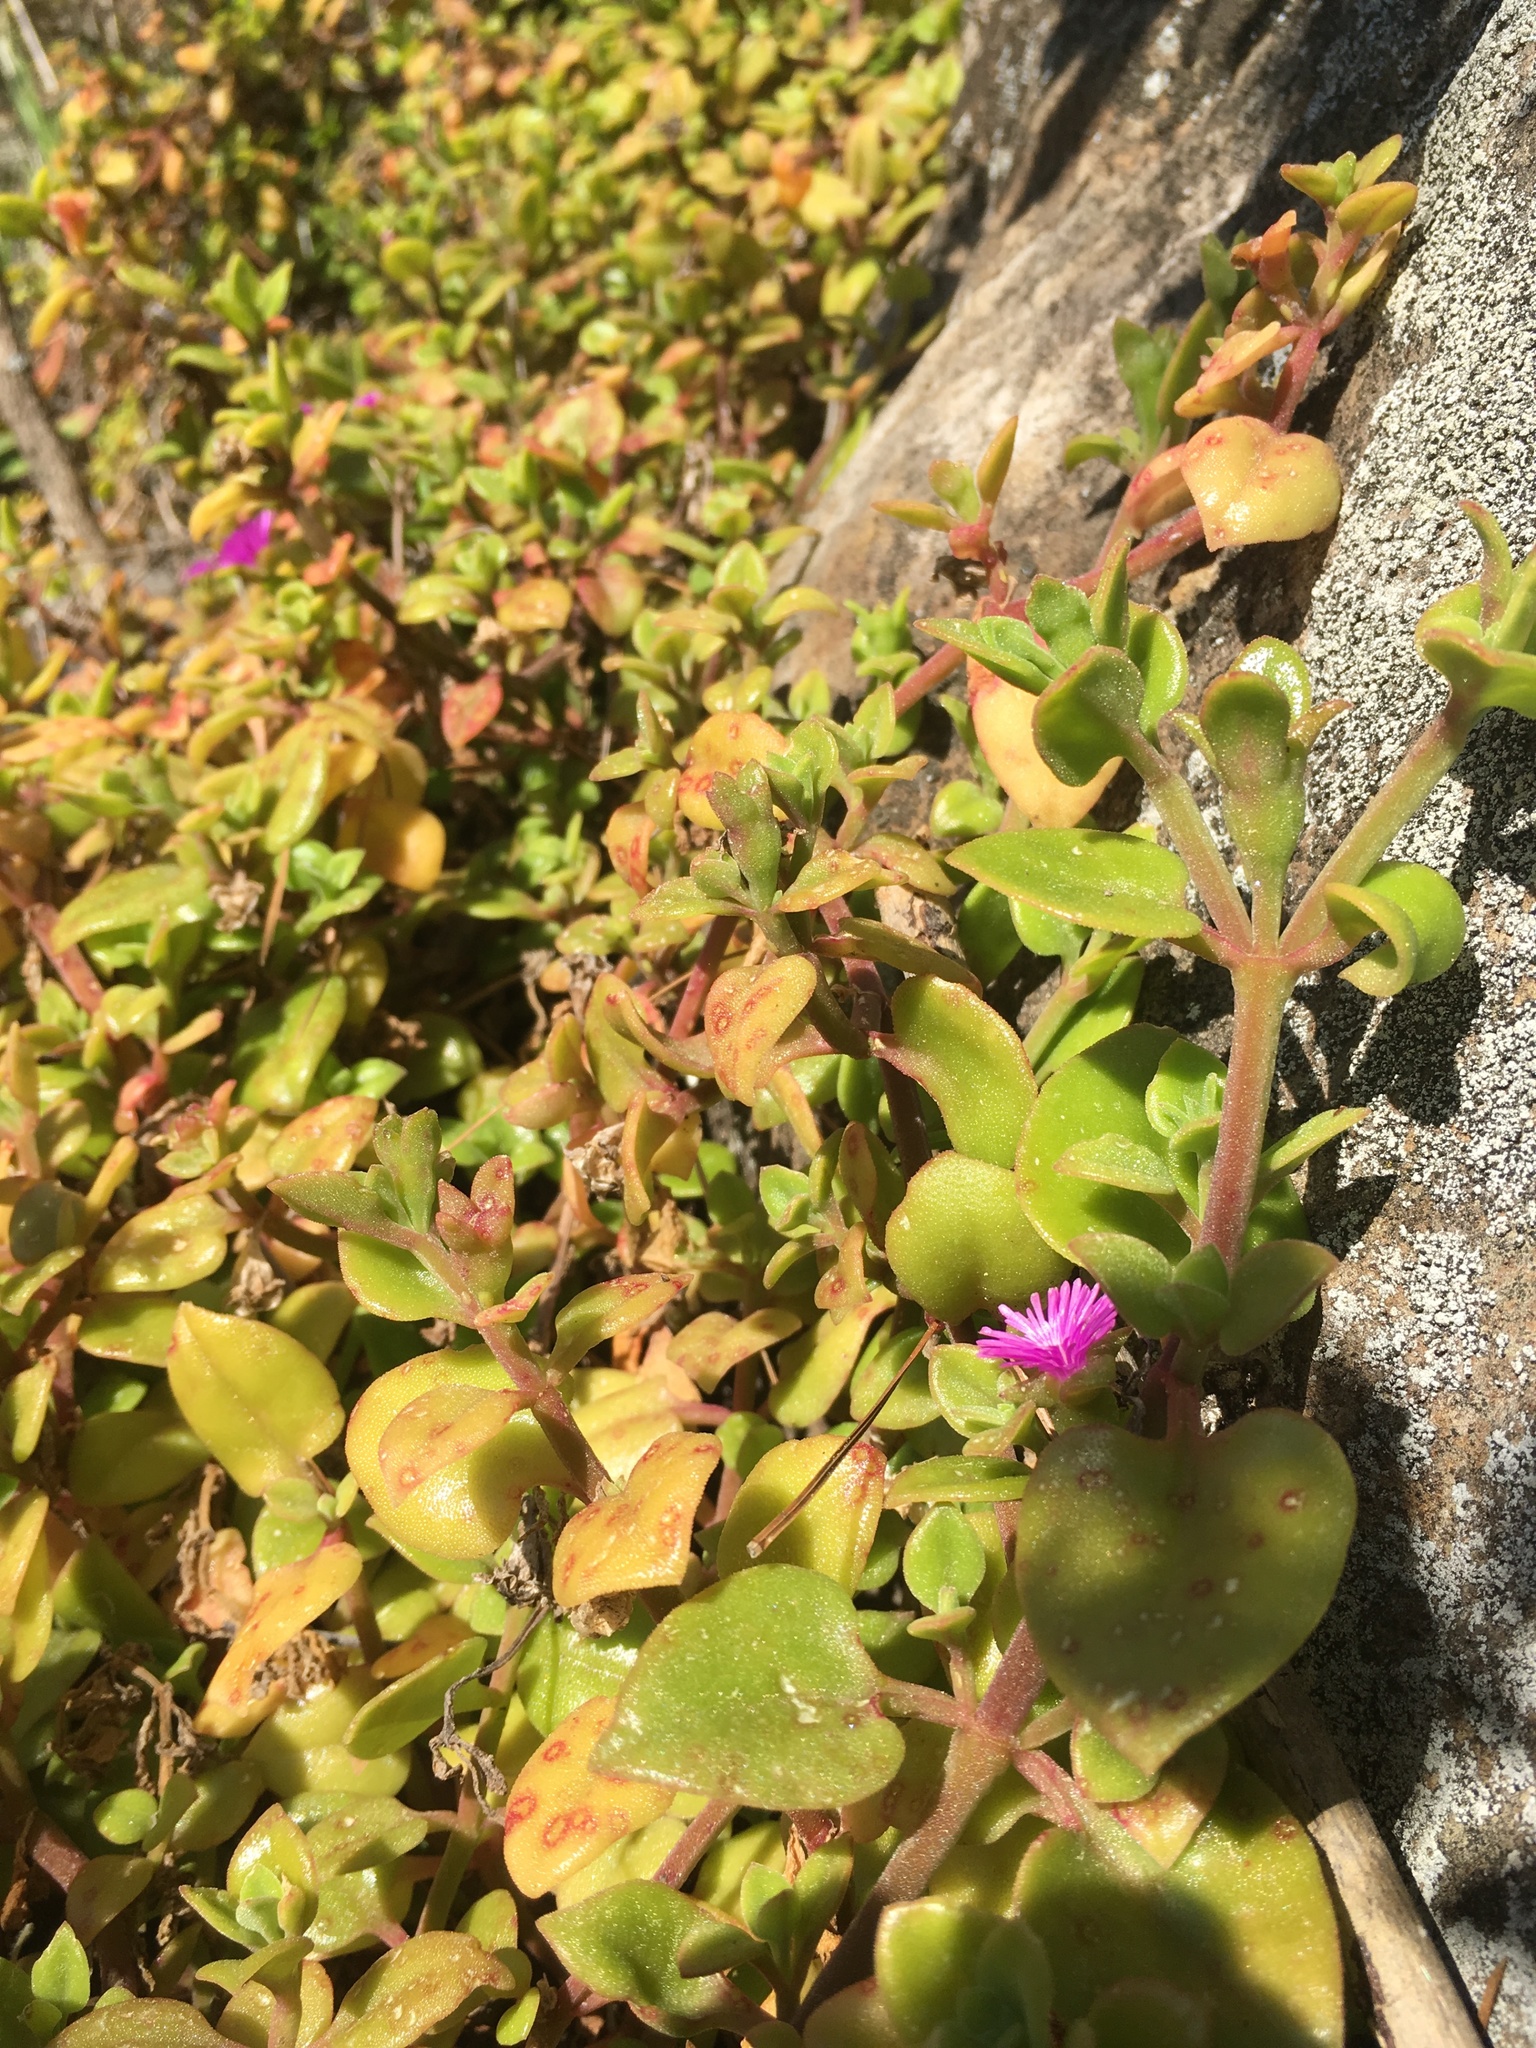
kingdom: Plantae
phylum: Tracheophyta
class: Magnoliopsida
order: Caryophyllales
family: Aizoaceae
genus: Mesembryanthemum
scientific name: Mesembryanthemum cordifolium
